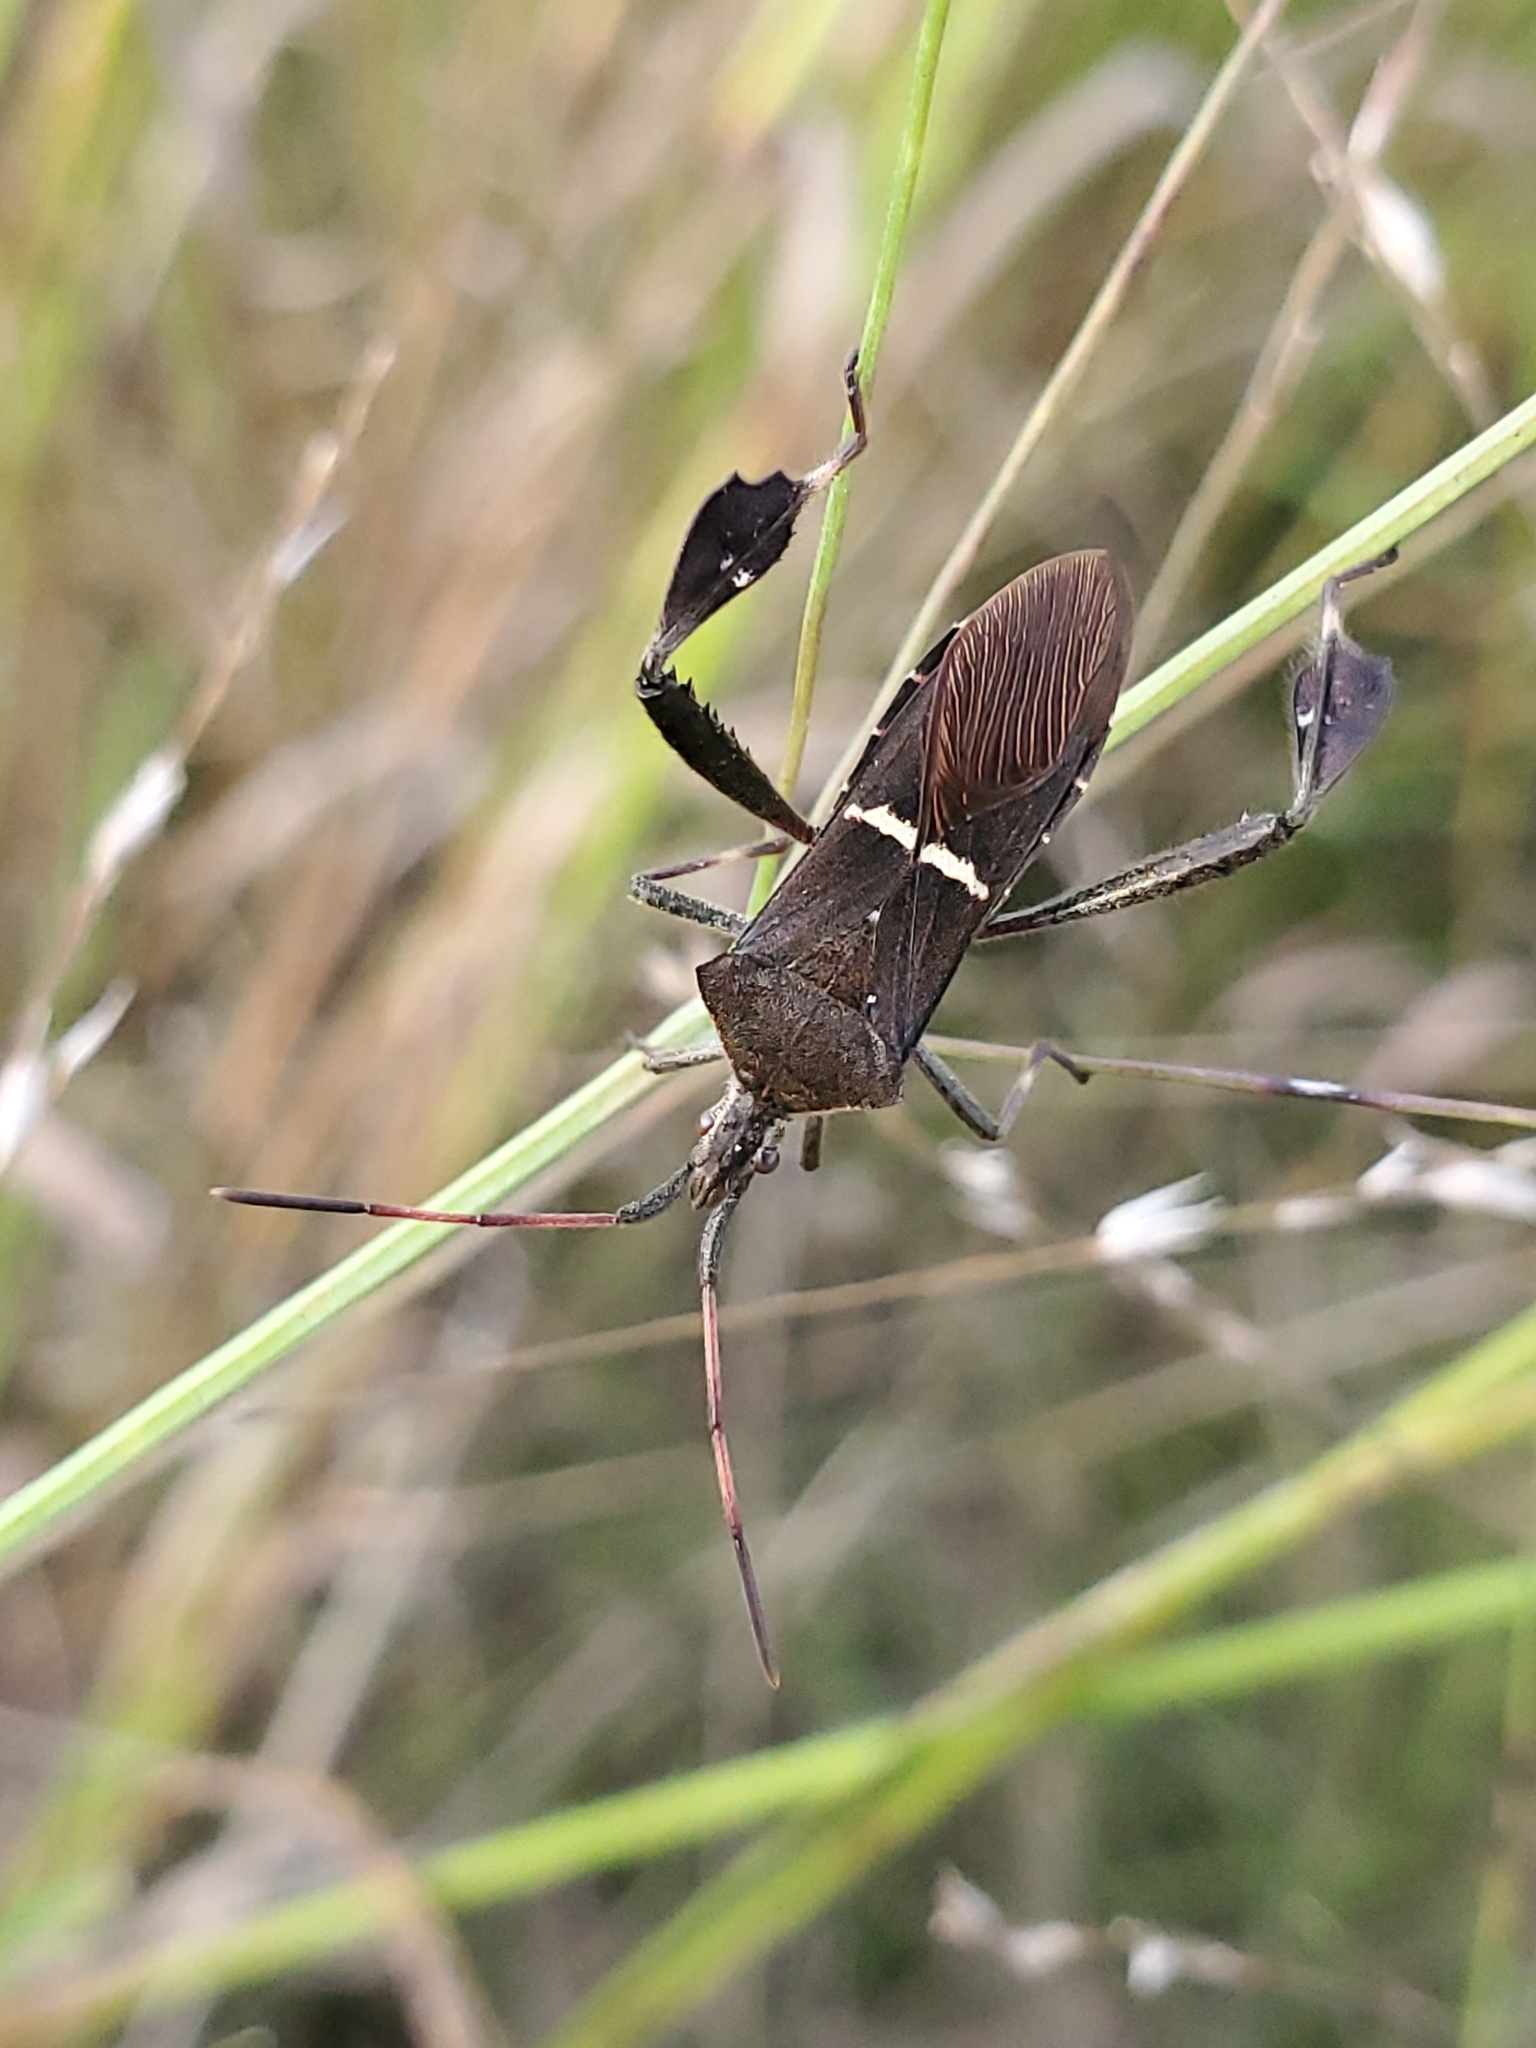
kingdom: Animalia
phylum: Arthropoda
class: Insecta
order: Hemiptera
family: Coreidae
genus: Leptoglossus
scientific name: Leptoglossus phyllopus
